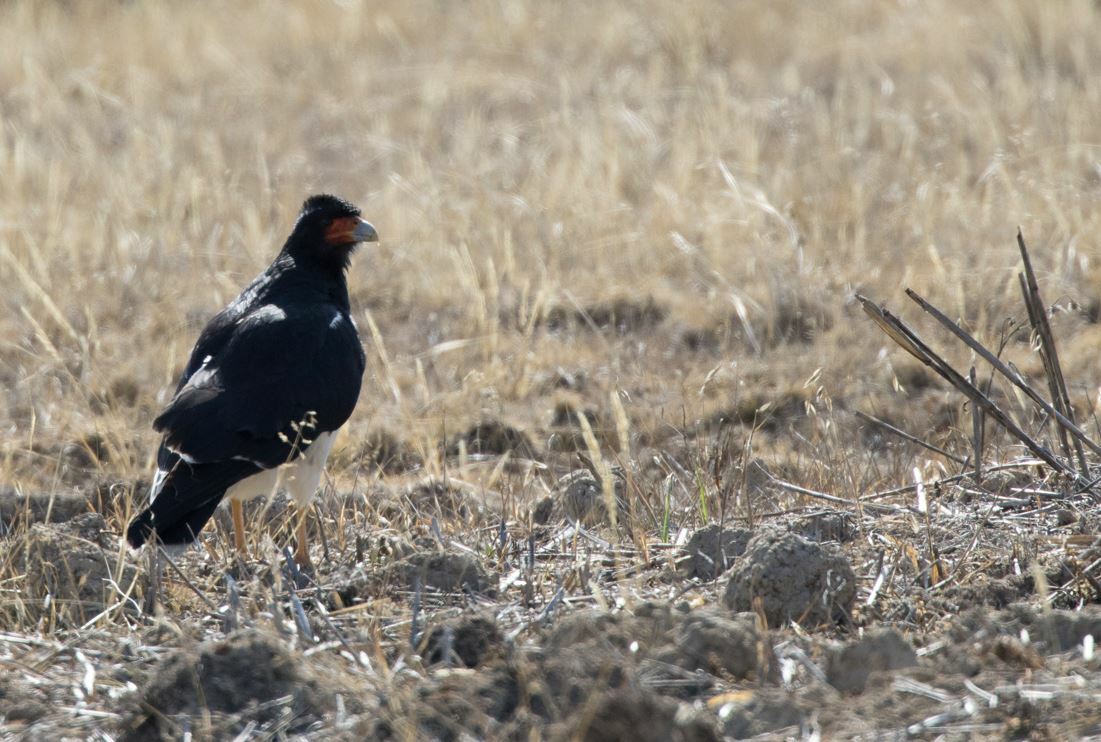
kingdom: Animalia
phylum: Chordata
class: Aves
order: Falconiformes
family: Falconidae
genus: Daptrius
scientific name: Daptrius
